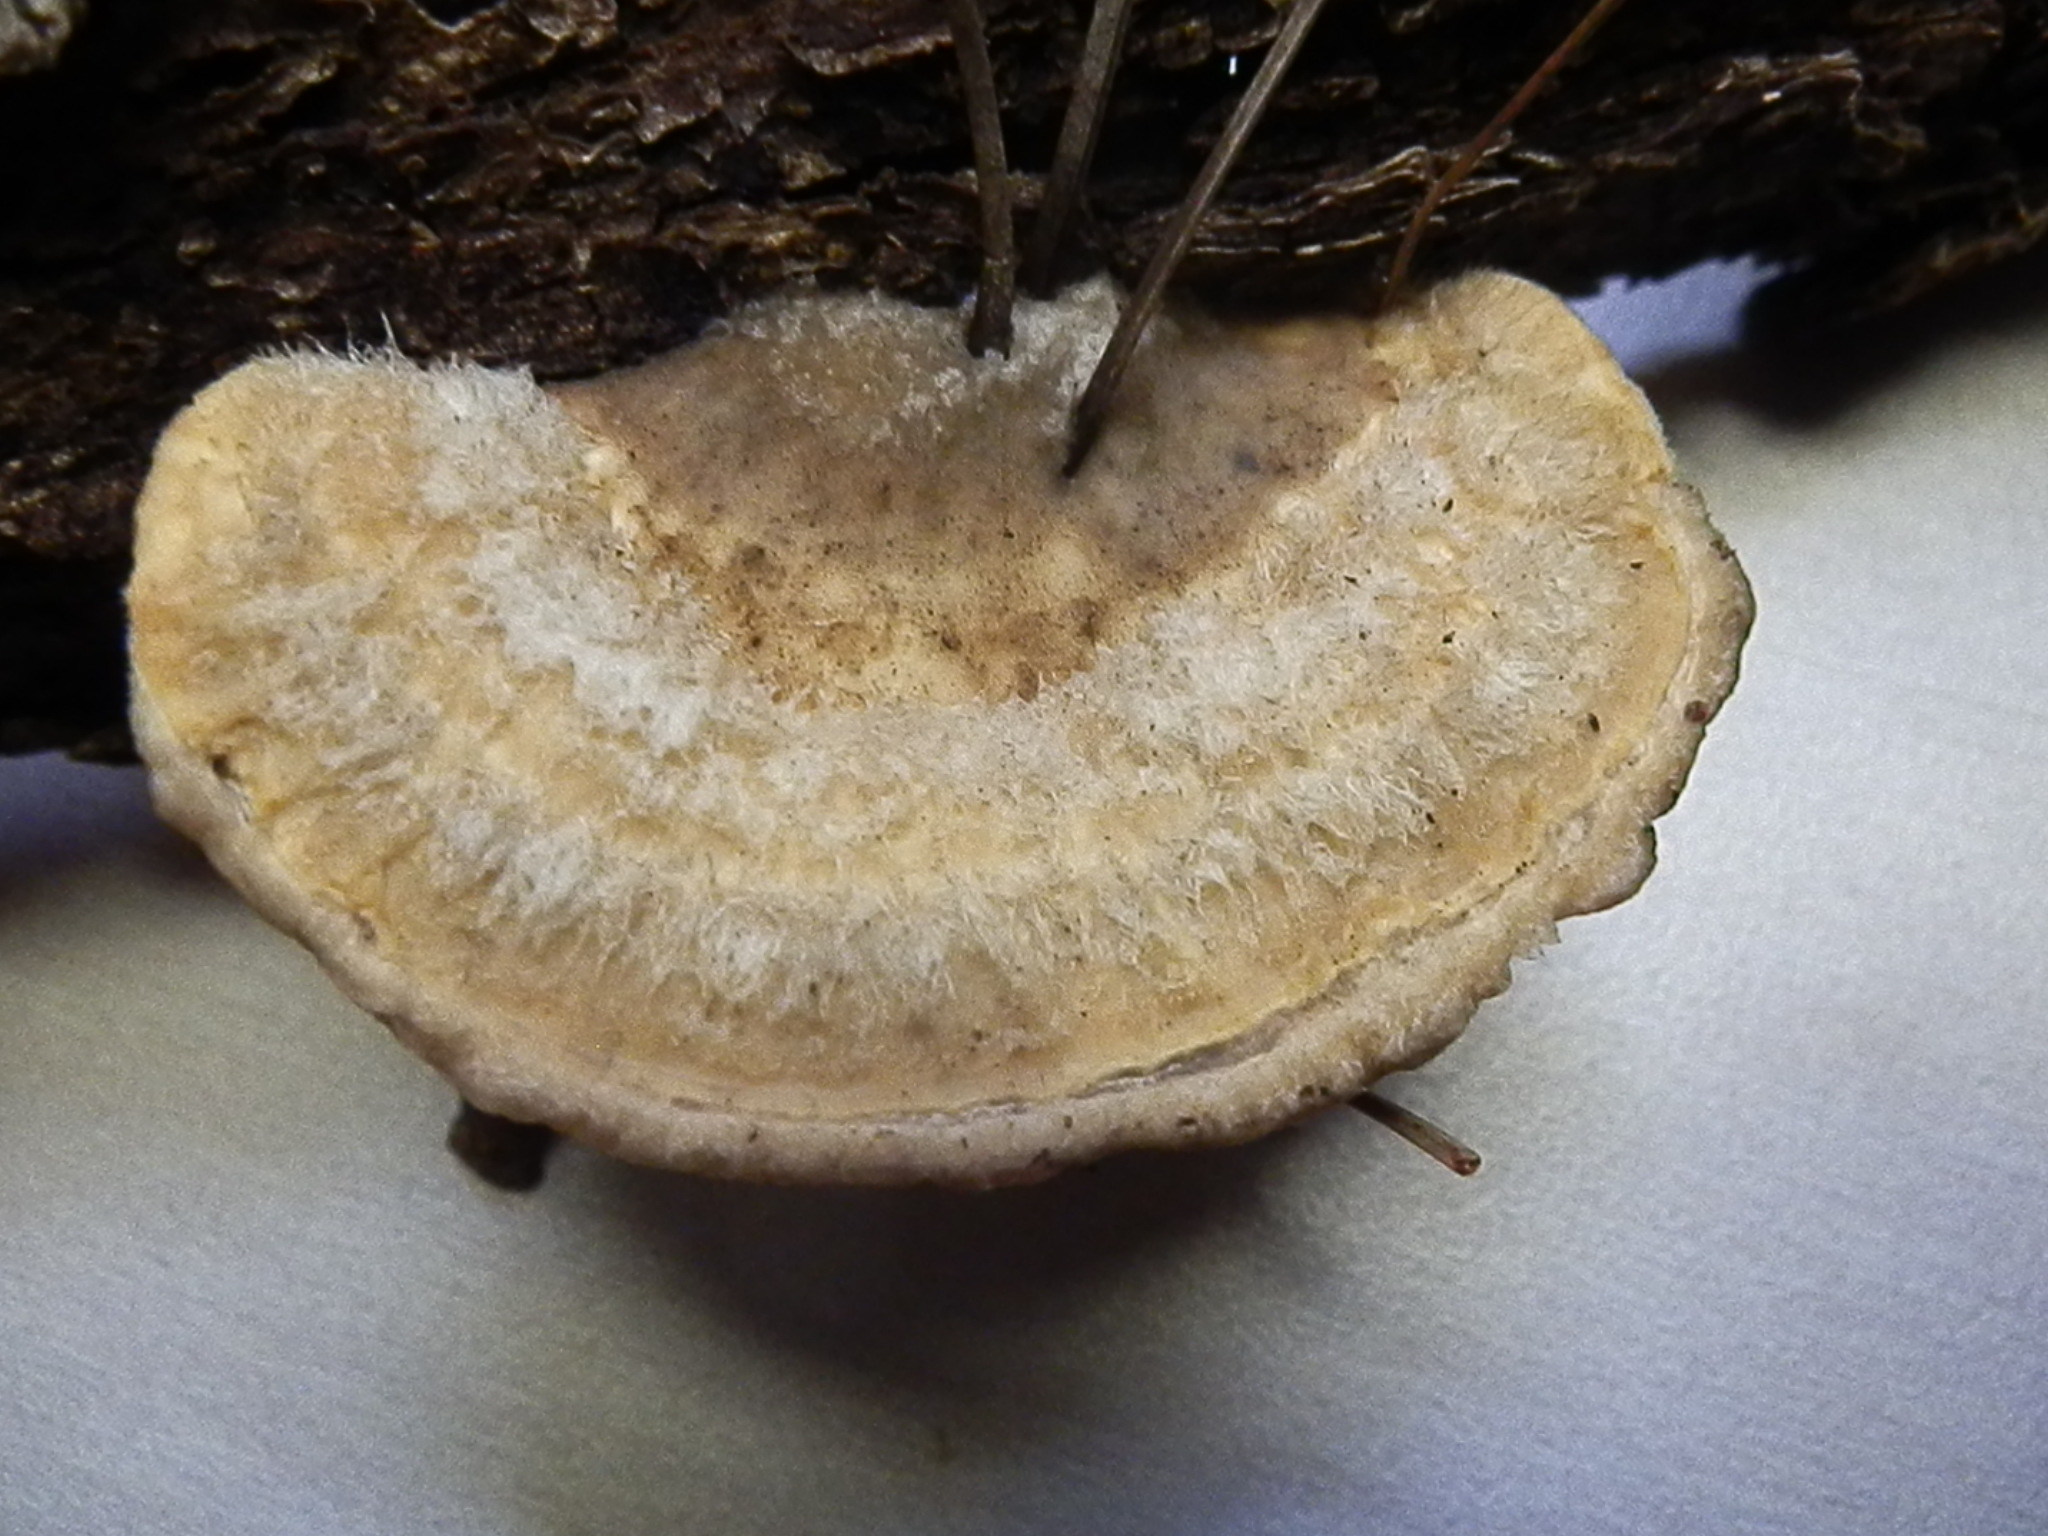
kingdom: Fungi
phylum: Basidiomycota
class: Agaricomycetes
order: Polyporales
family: Polyporaceae
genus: Trametes
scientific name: Trametes hirsuta
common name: Hairy bracket
